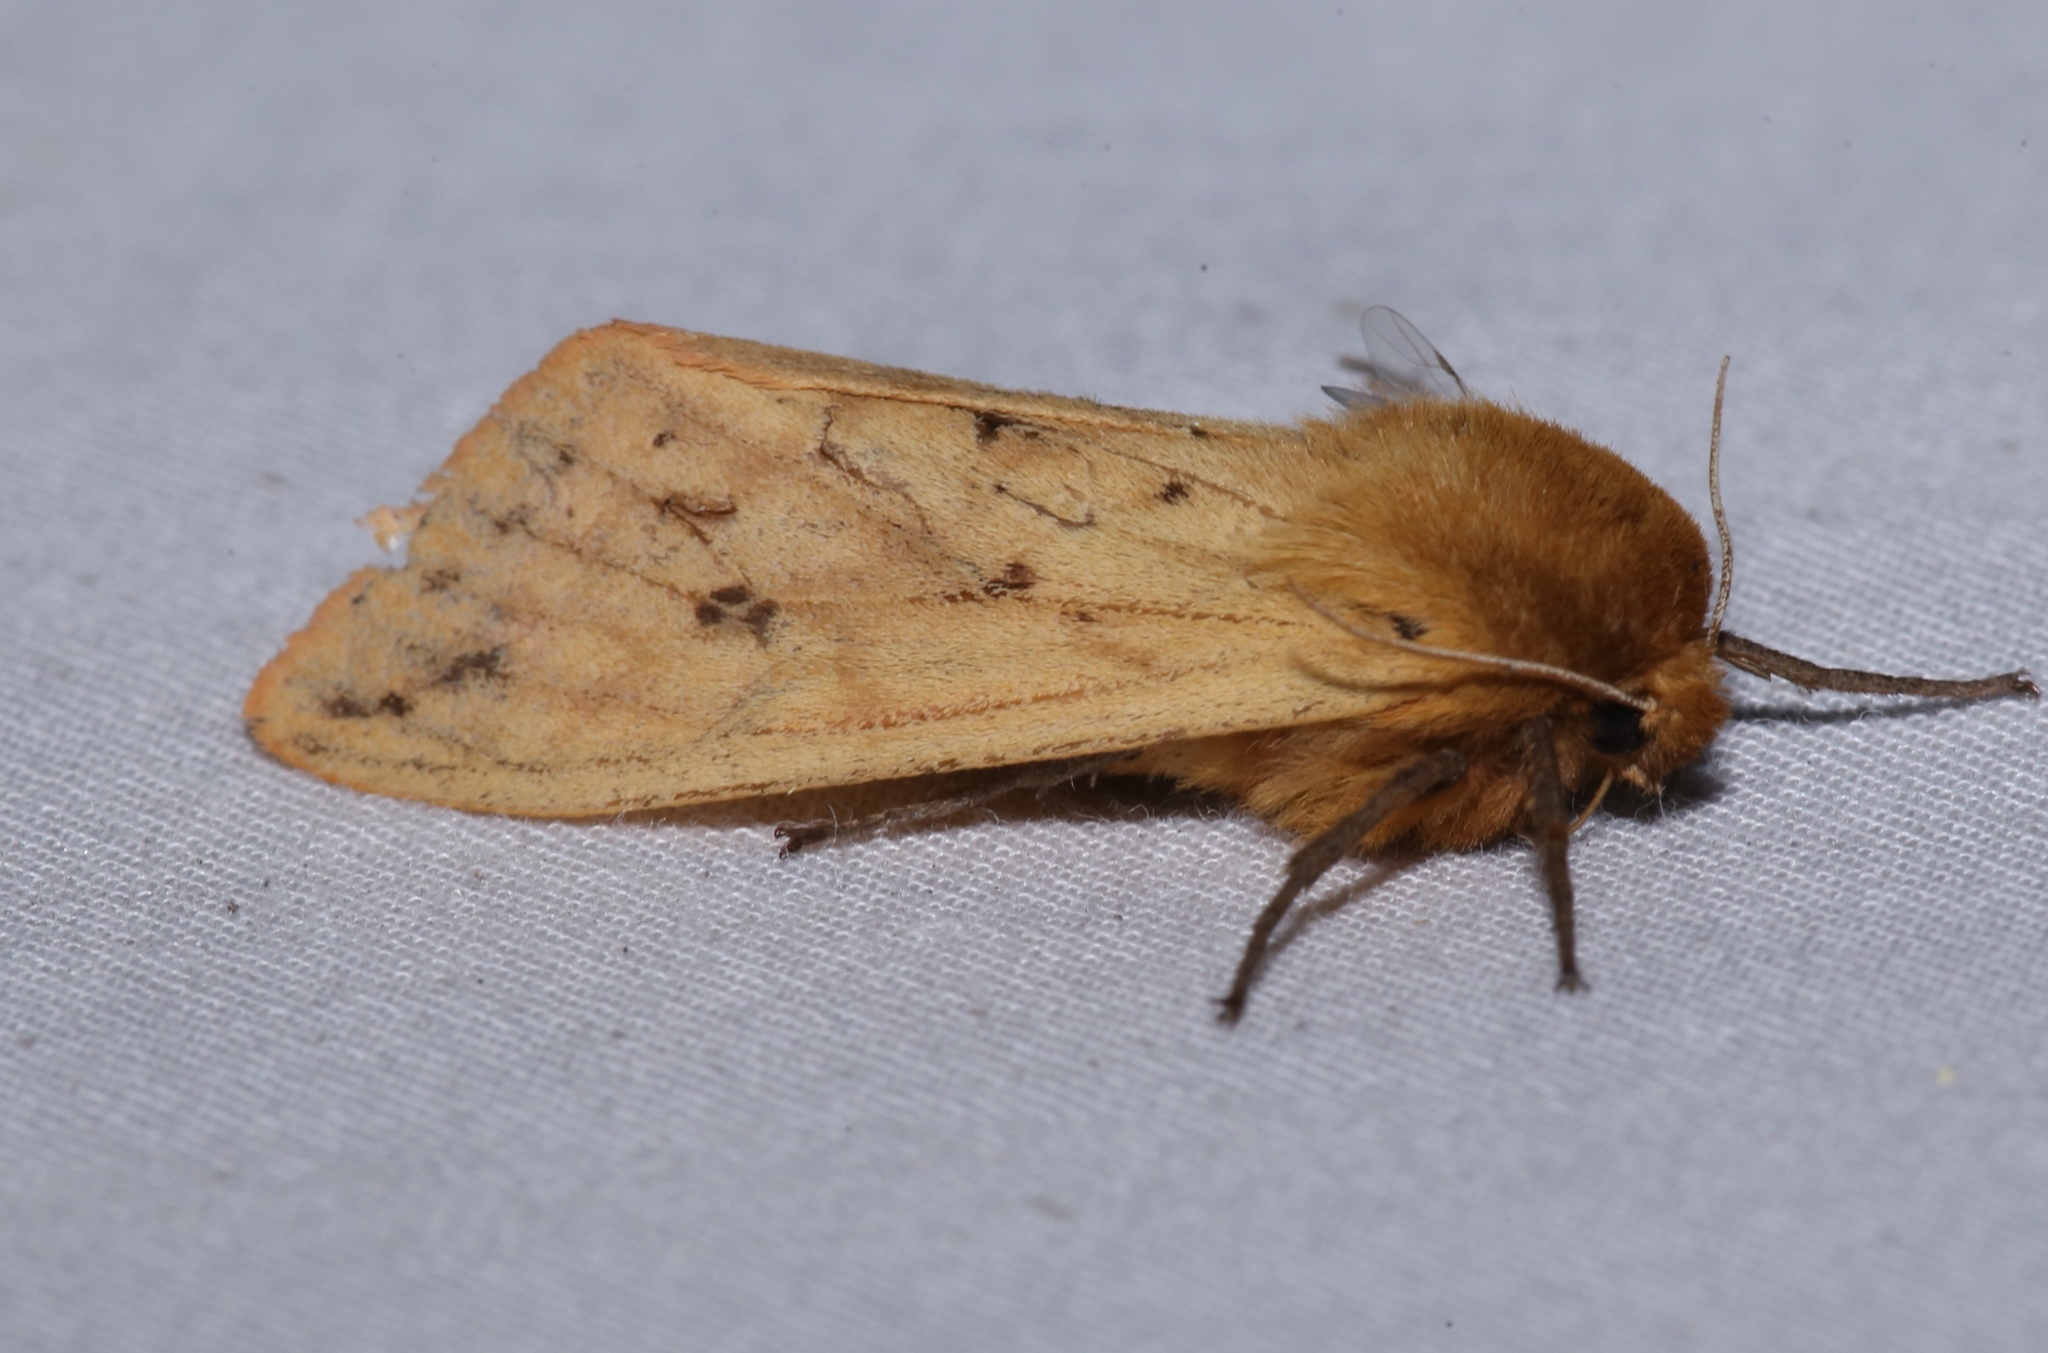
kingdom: Animalia
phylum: Arthropoda
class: Insecta
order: Lepidoptera
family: Erebidae
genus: Pyrrharctia
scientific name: Pyrrharctia isabella
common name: Isabella tiger moth
